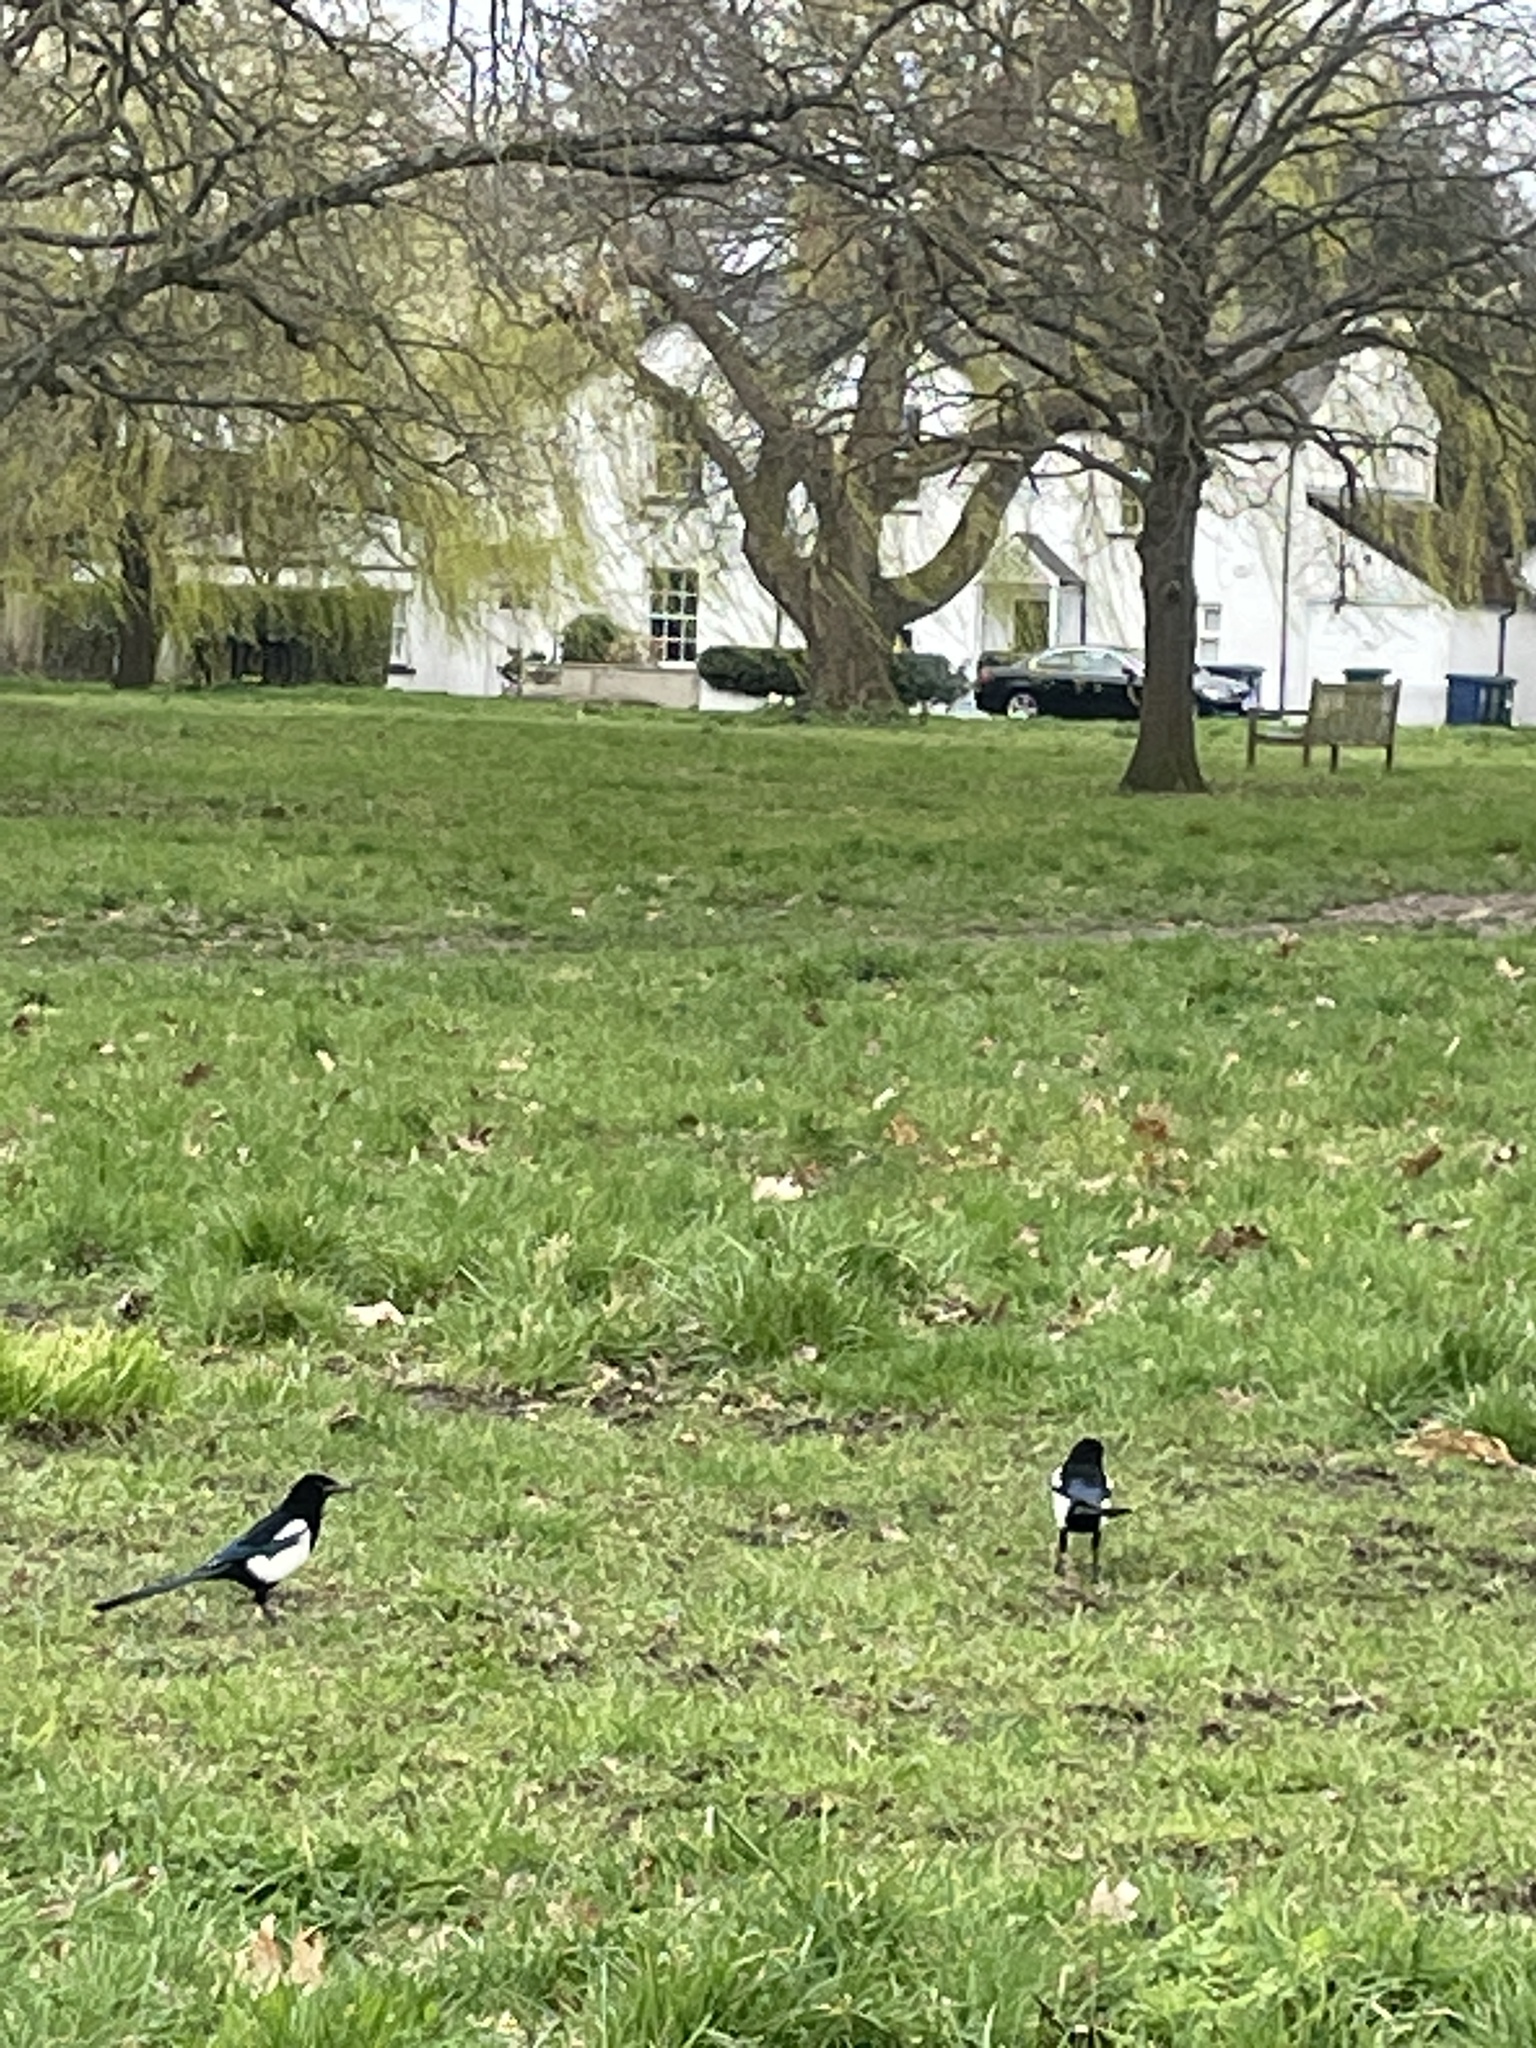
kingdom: Animalia
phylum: Chordata
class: Aves
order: Passeriformes
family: Corvidae
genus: Pica
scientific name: Pica pica
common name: Eurasian magpie
